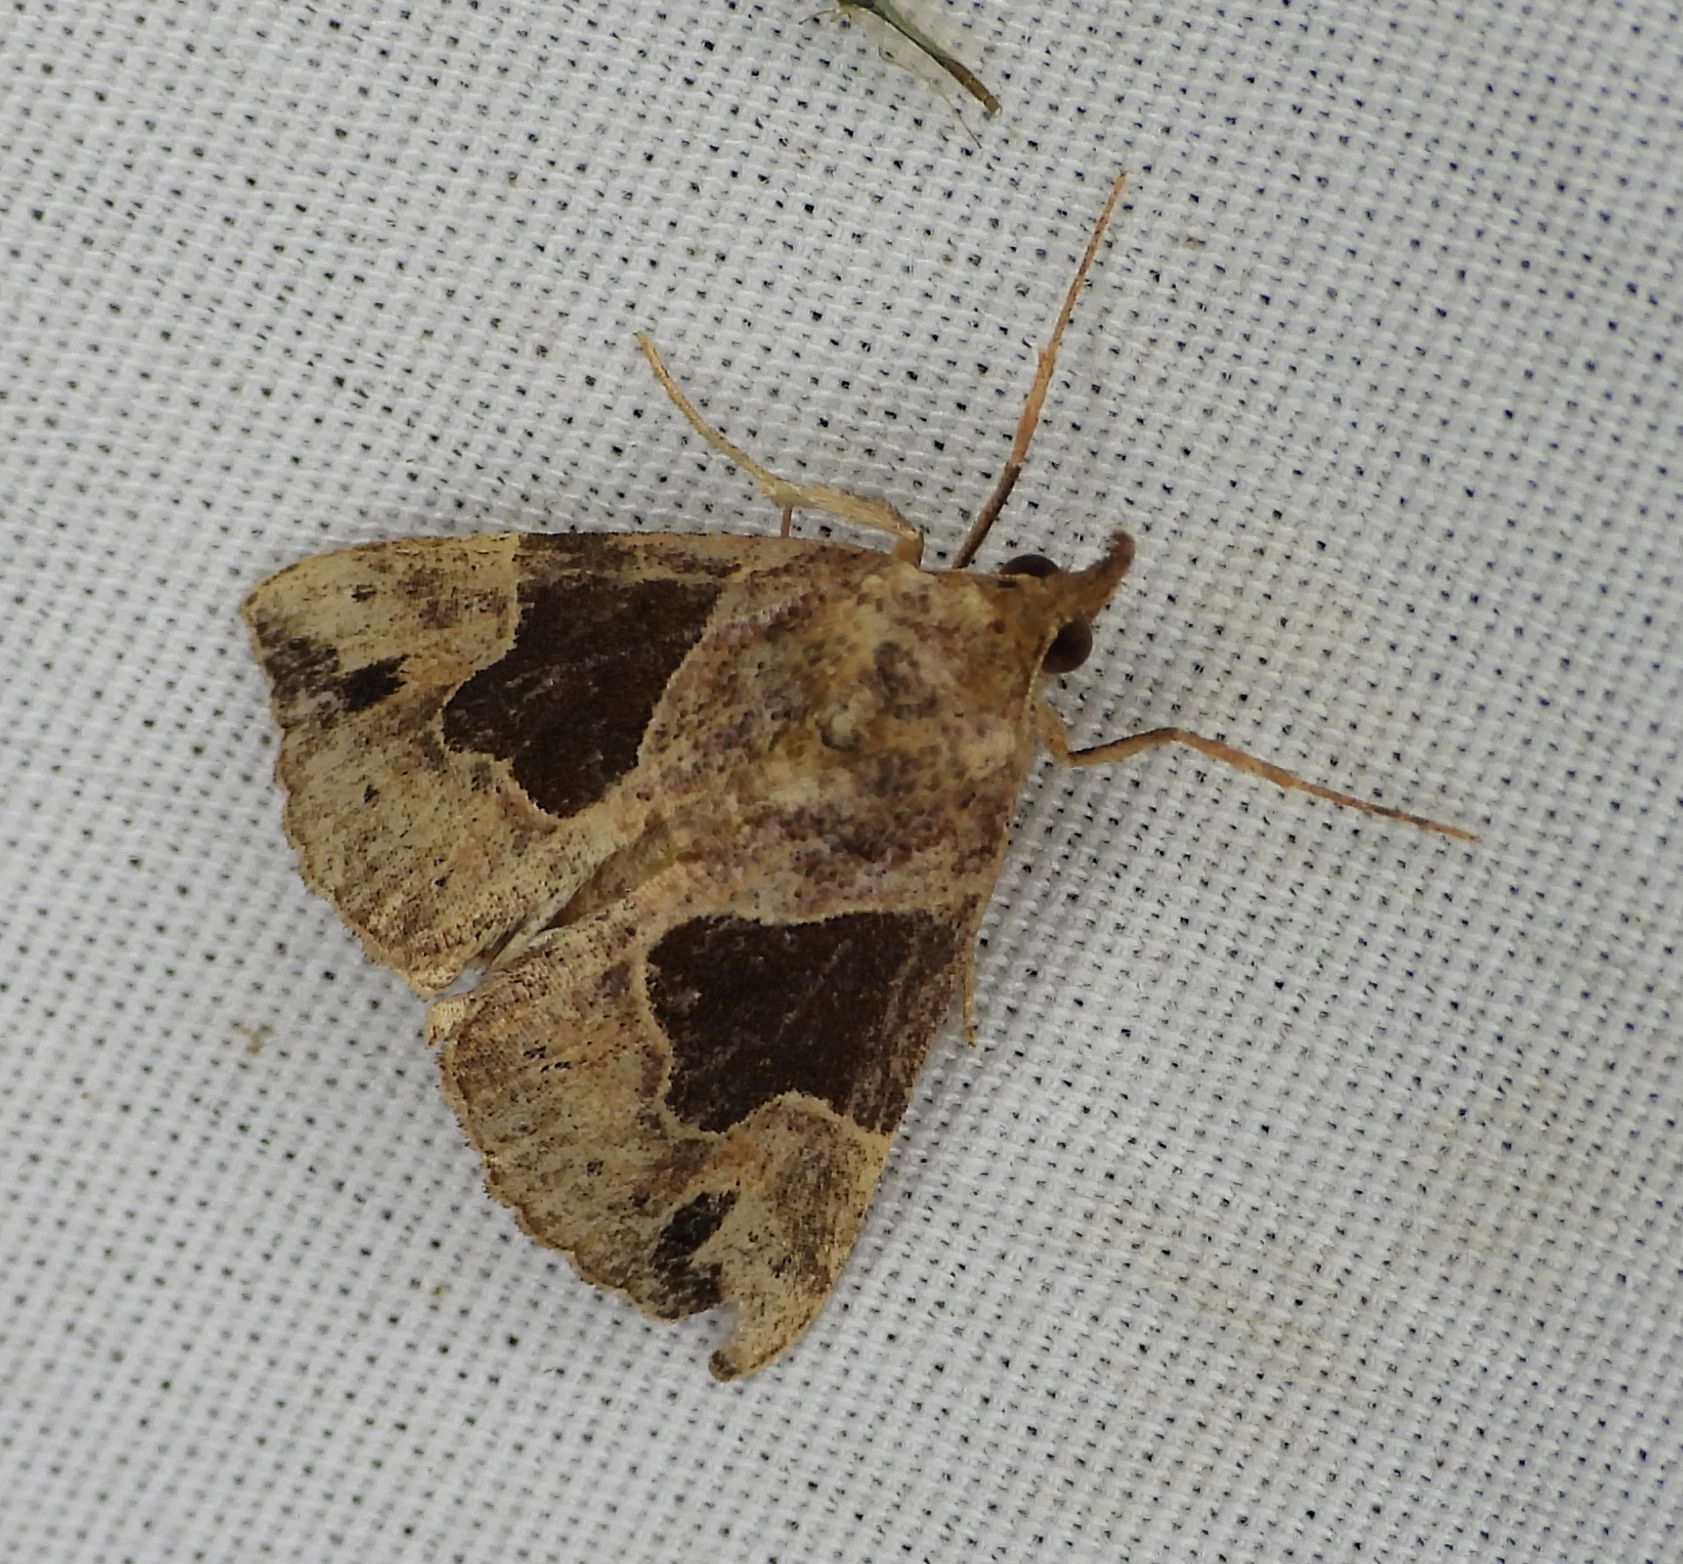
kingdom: Animalia
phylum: Arthropoda
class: Insecta
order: Lepidoptera
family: Erebidae
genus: Hypena
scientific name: Hypena manalis
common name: Flowing-line bomolocha moth
